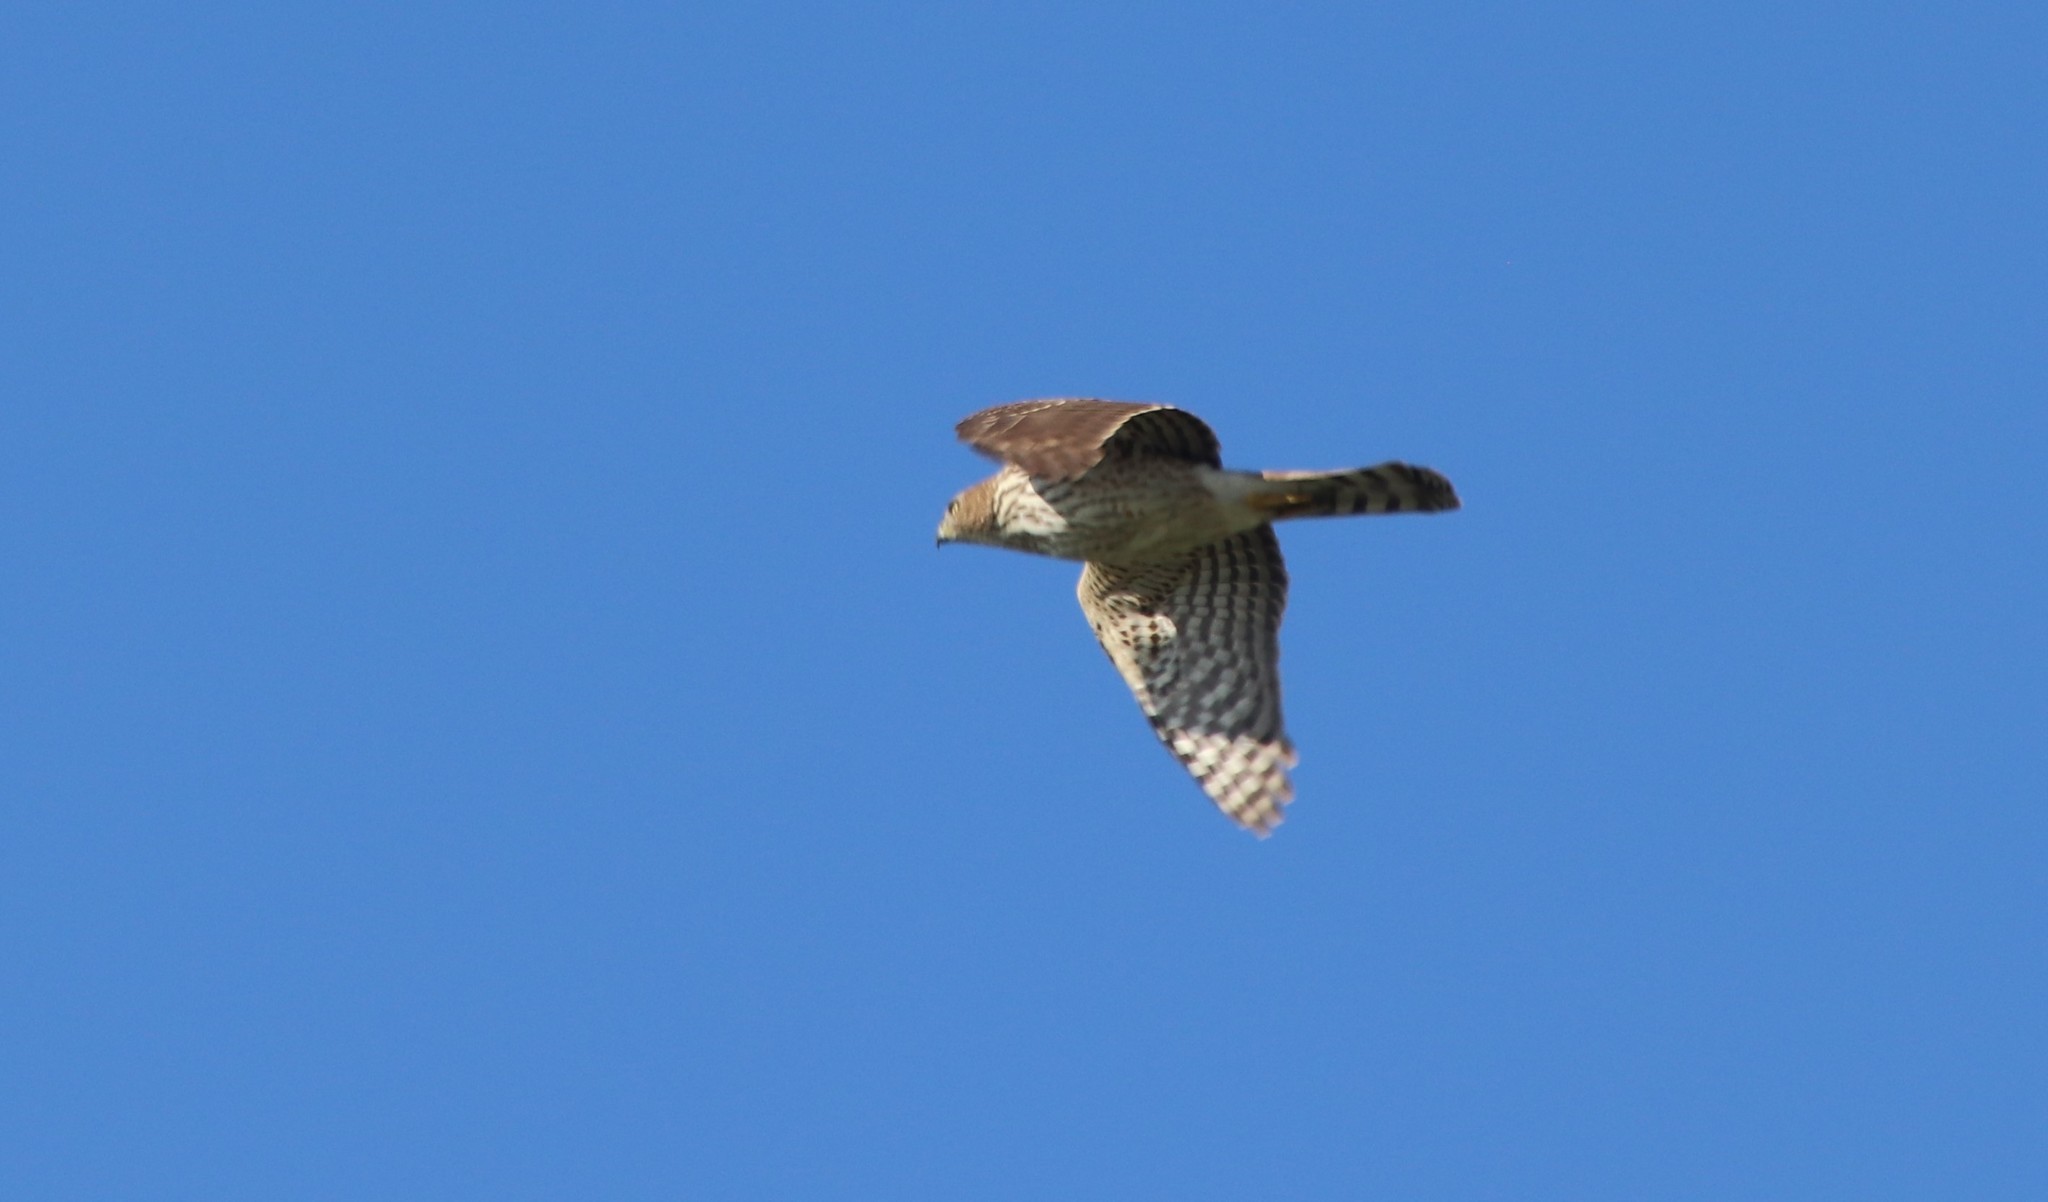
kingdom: Animalia
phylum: Chordata
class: Aves
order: Accipitriformes
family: Accipitridae
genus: Accipiter
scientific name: Accipiter cooperii
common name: Cooper's hawk
